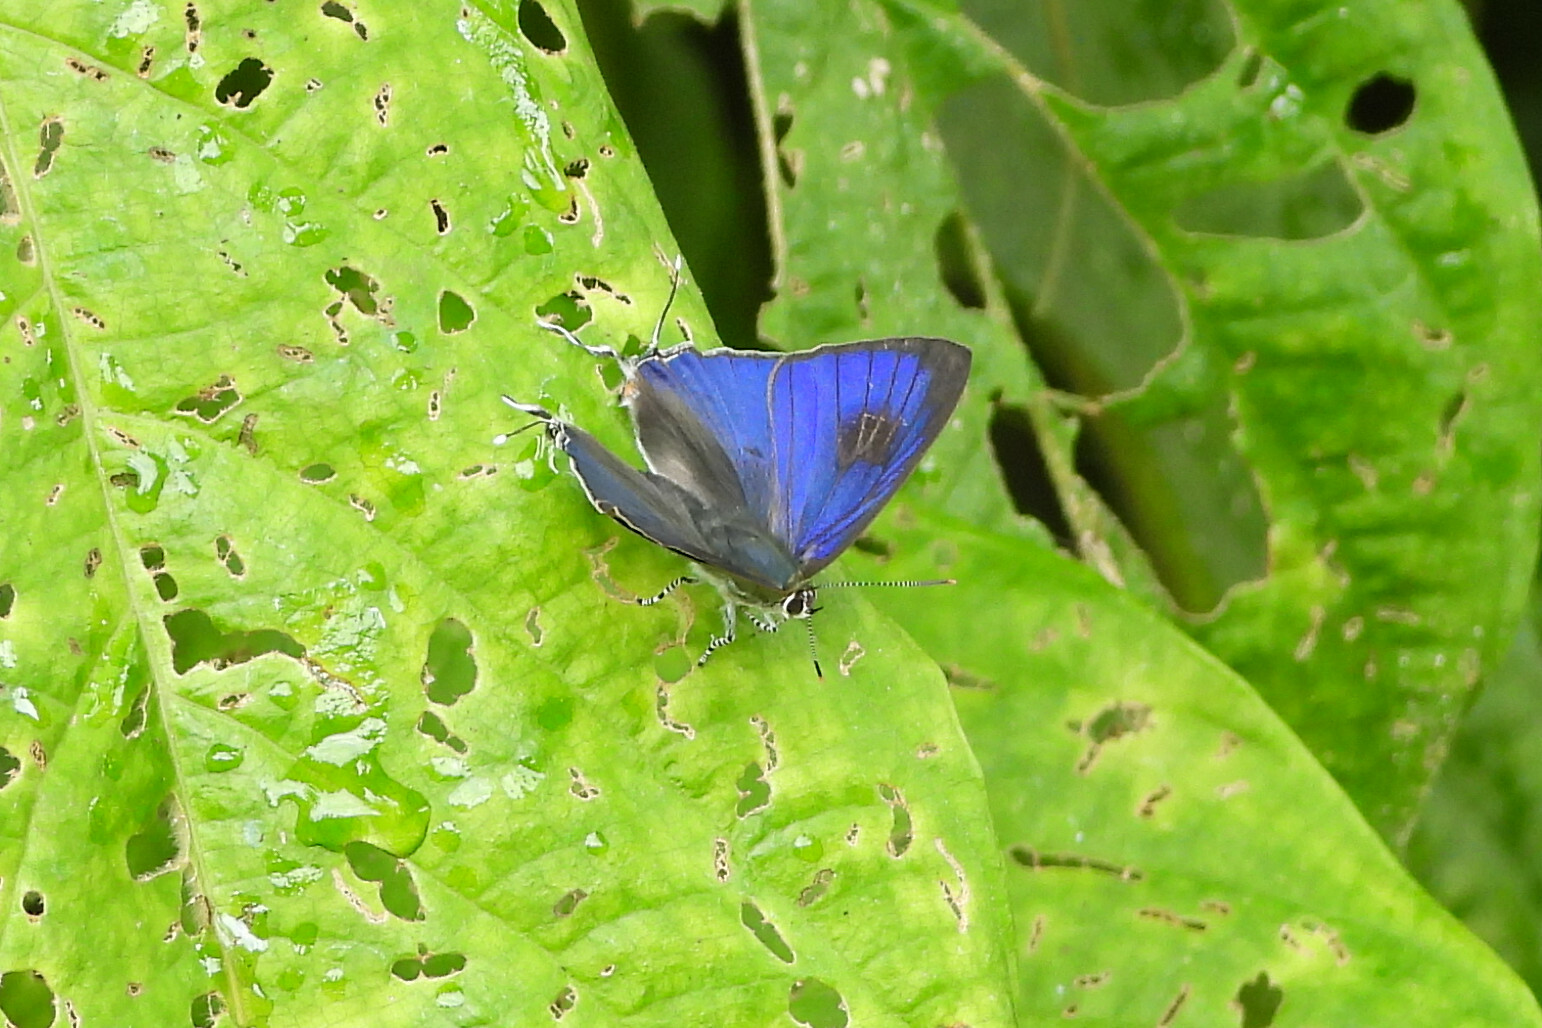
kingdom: Animalia
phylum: Arthropoda
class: Insecta
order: Lepidoptera
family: Lycaenidae
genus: Hypolycaena
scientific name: Hypolycaena erylus
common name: Common tit
